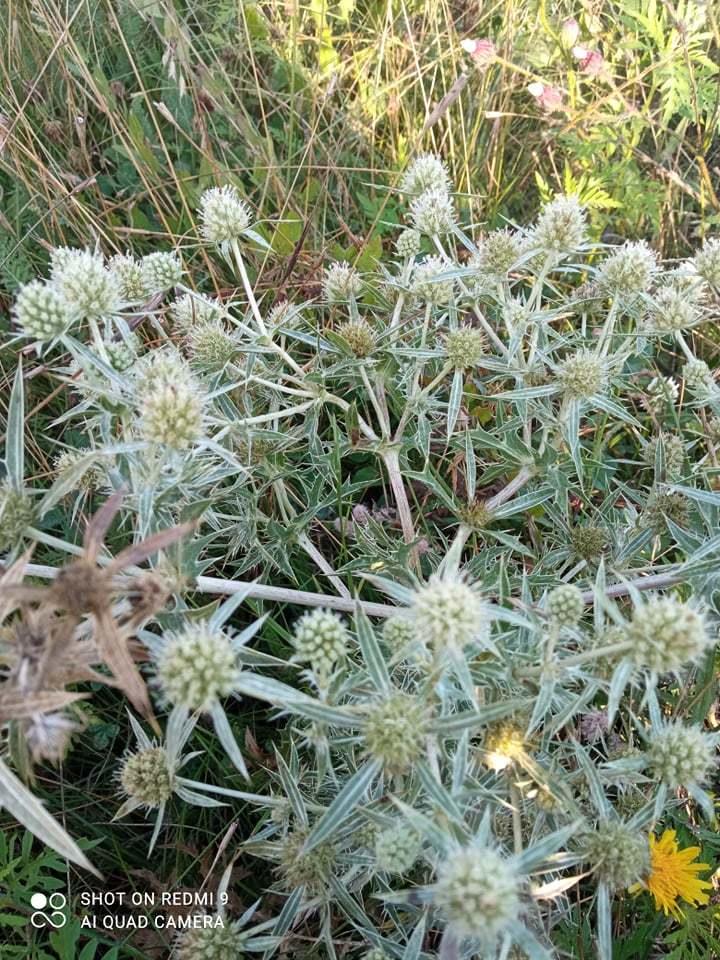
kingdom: Plantae
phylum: Tracheophyta
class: Magnoliopsida
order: Apiales
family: Apiaceae
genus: Eryngium
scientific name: Eryngium campestre
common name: Field eryngo
